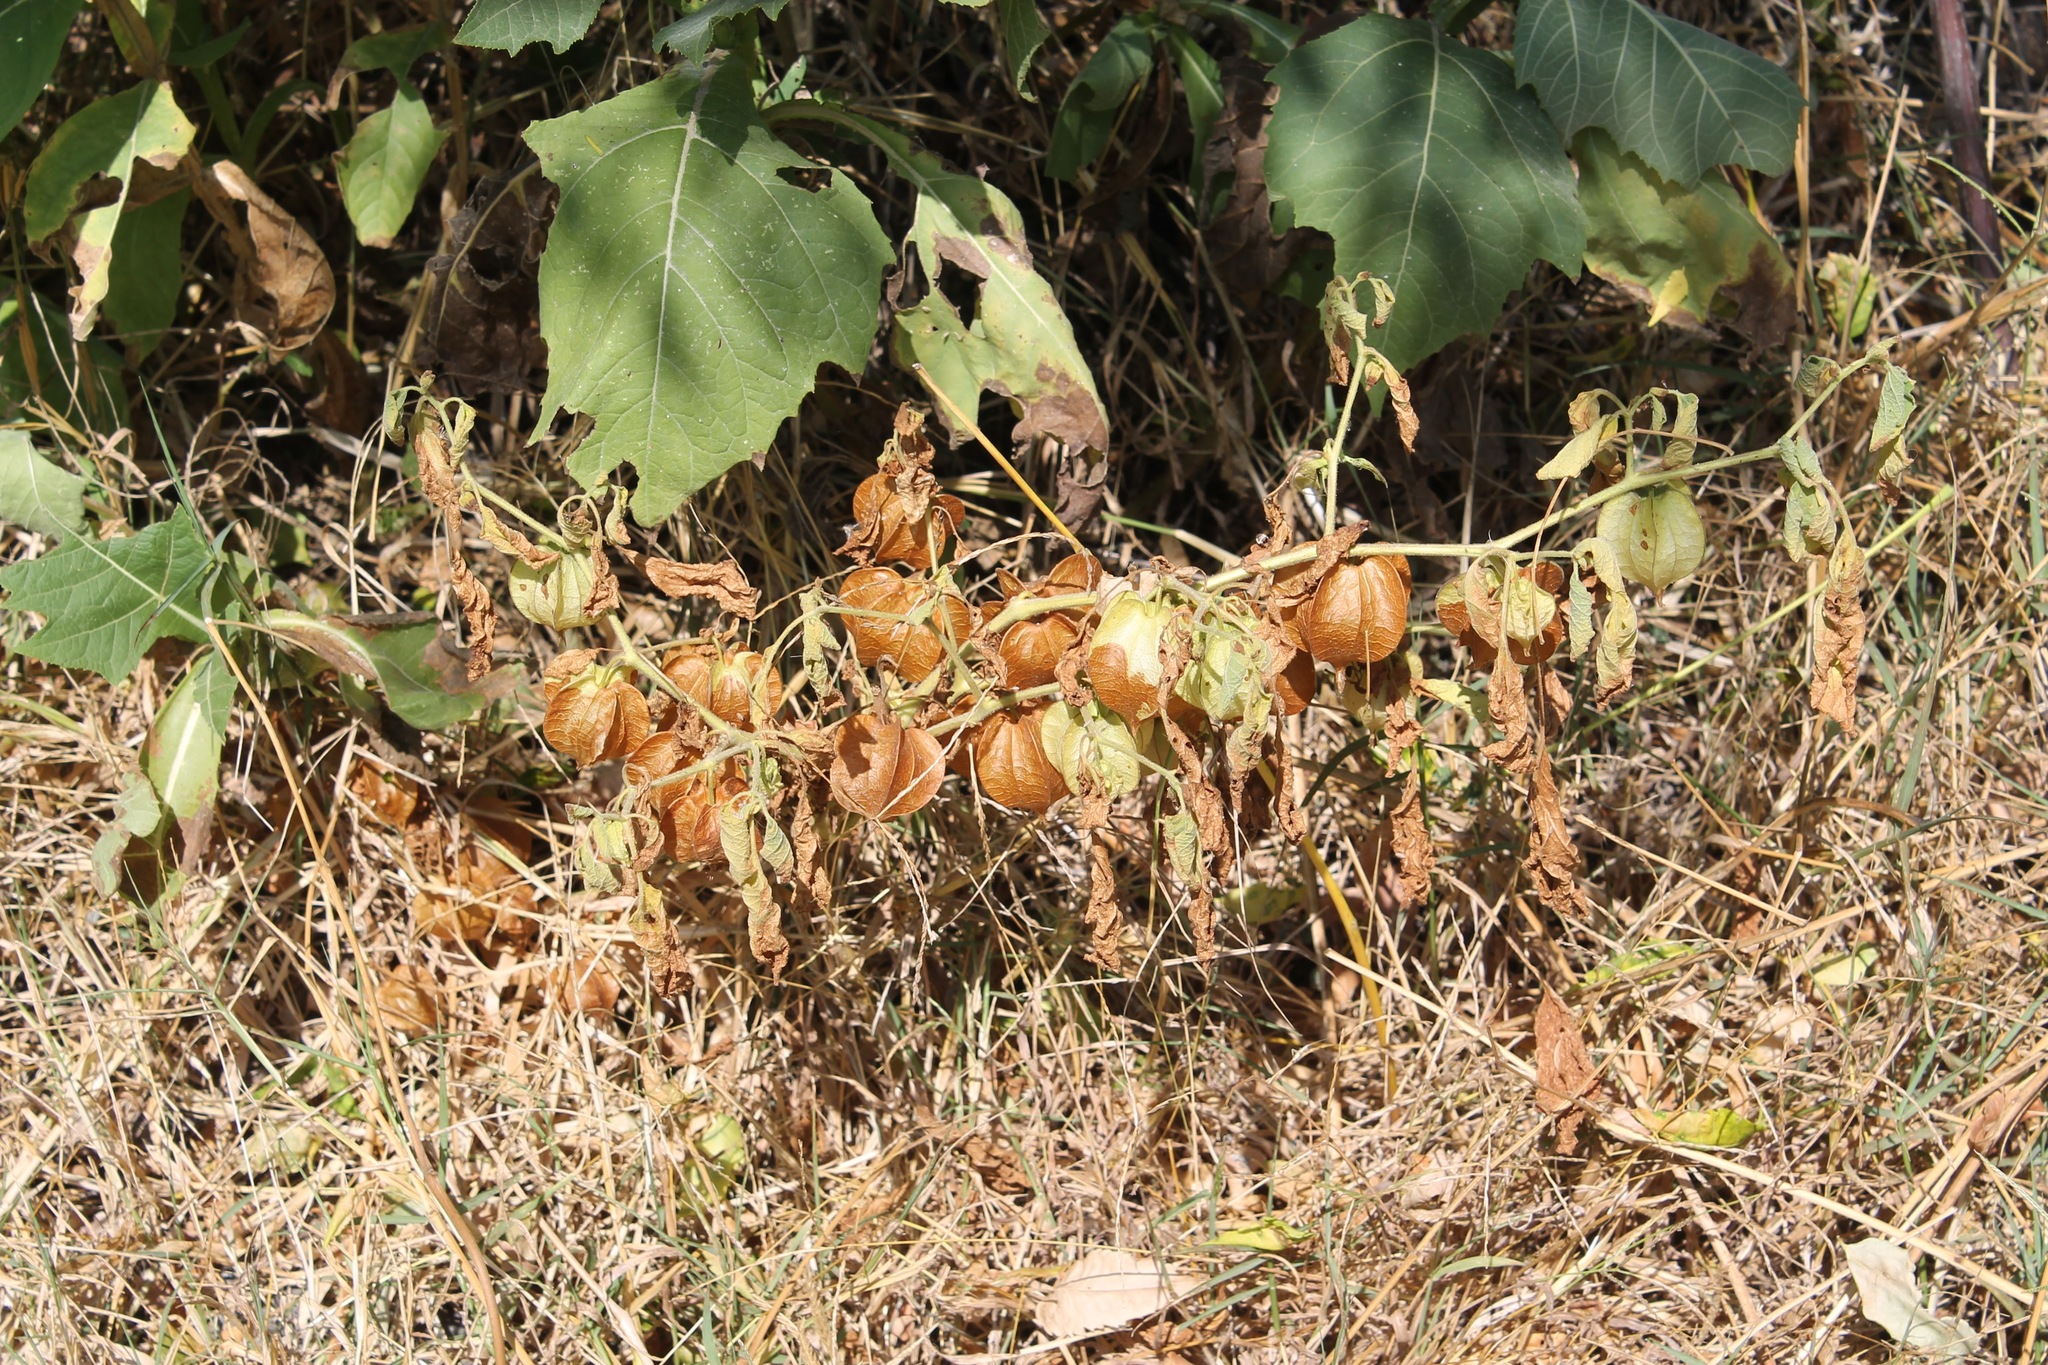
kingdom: Plantae
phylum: Tracheophyta
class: Magnoliopsida
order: Solanales
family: Solanaceae
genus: Nicandra
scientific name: Nicandra physalodes
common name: Apple-of-peru
